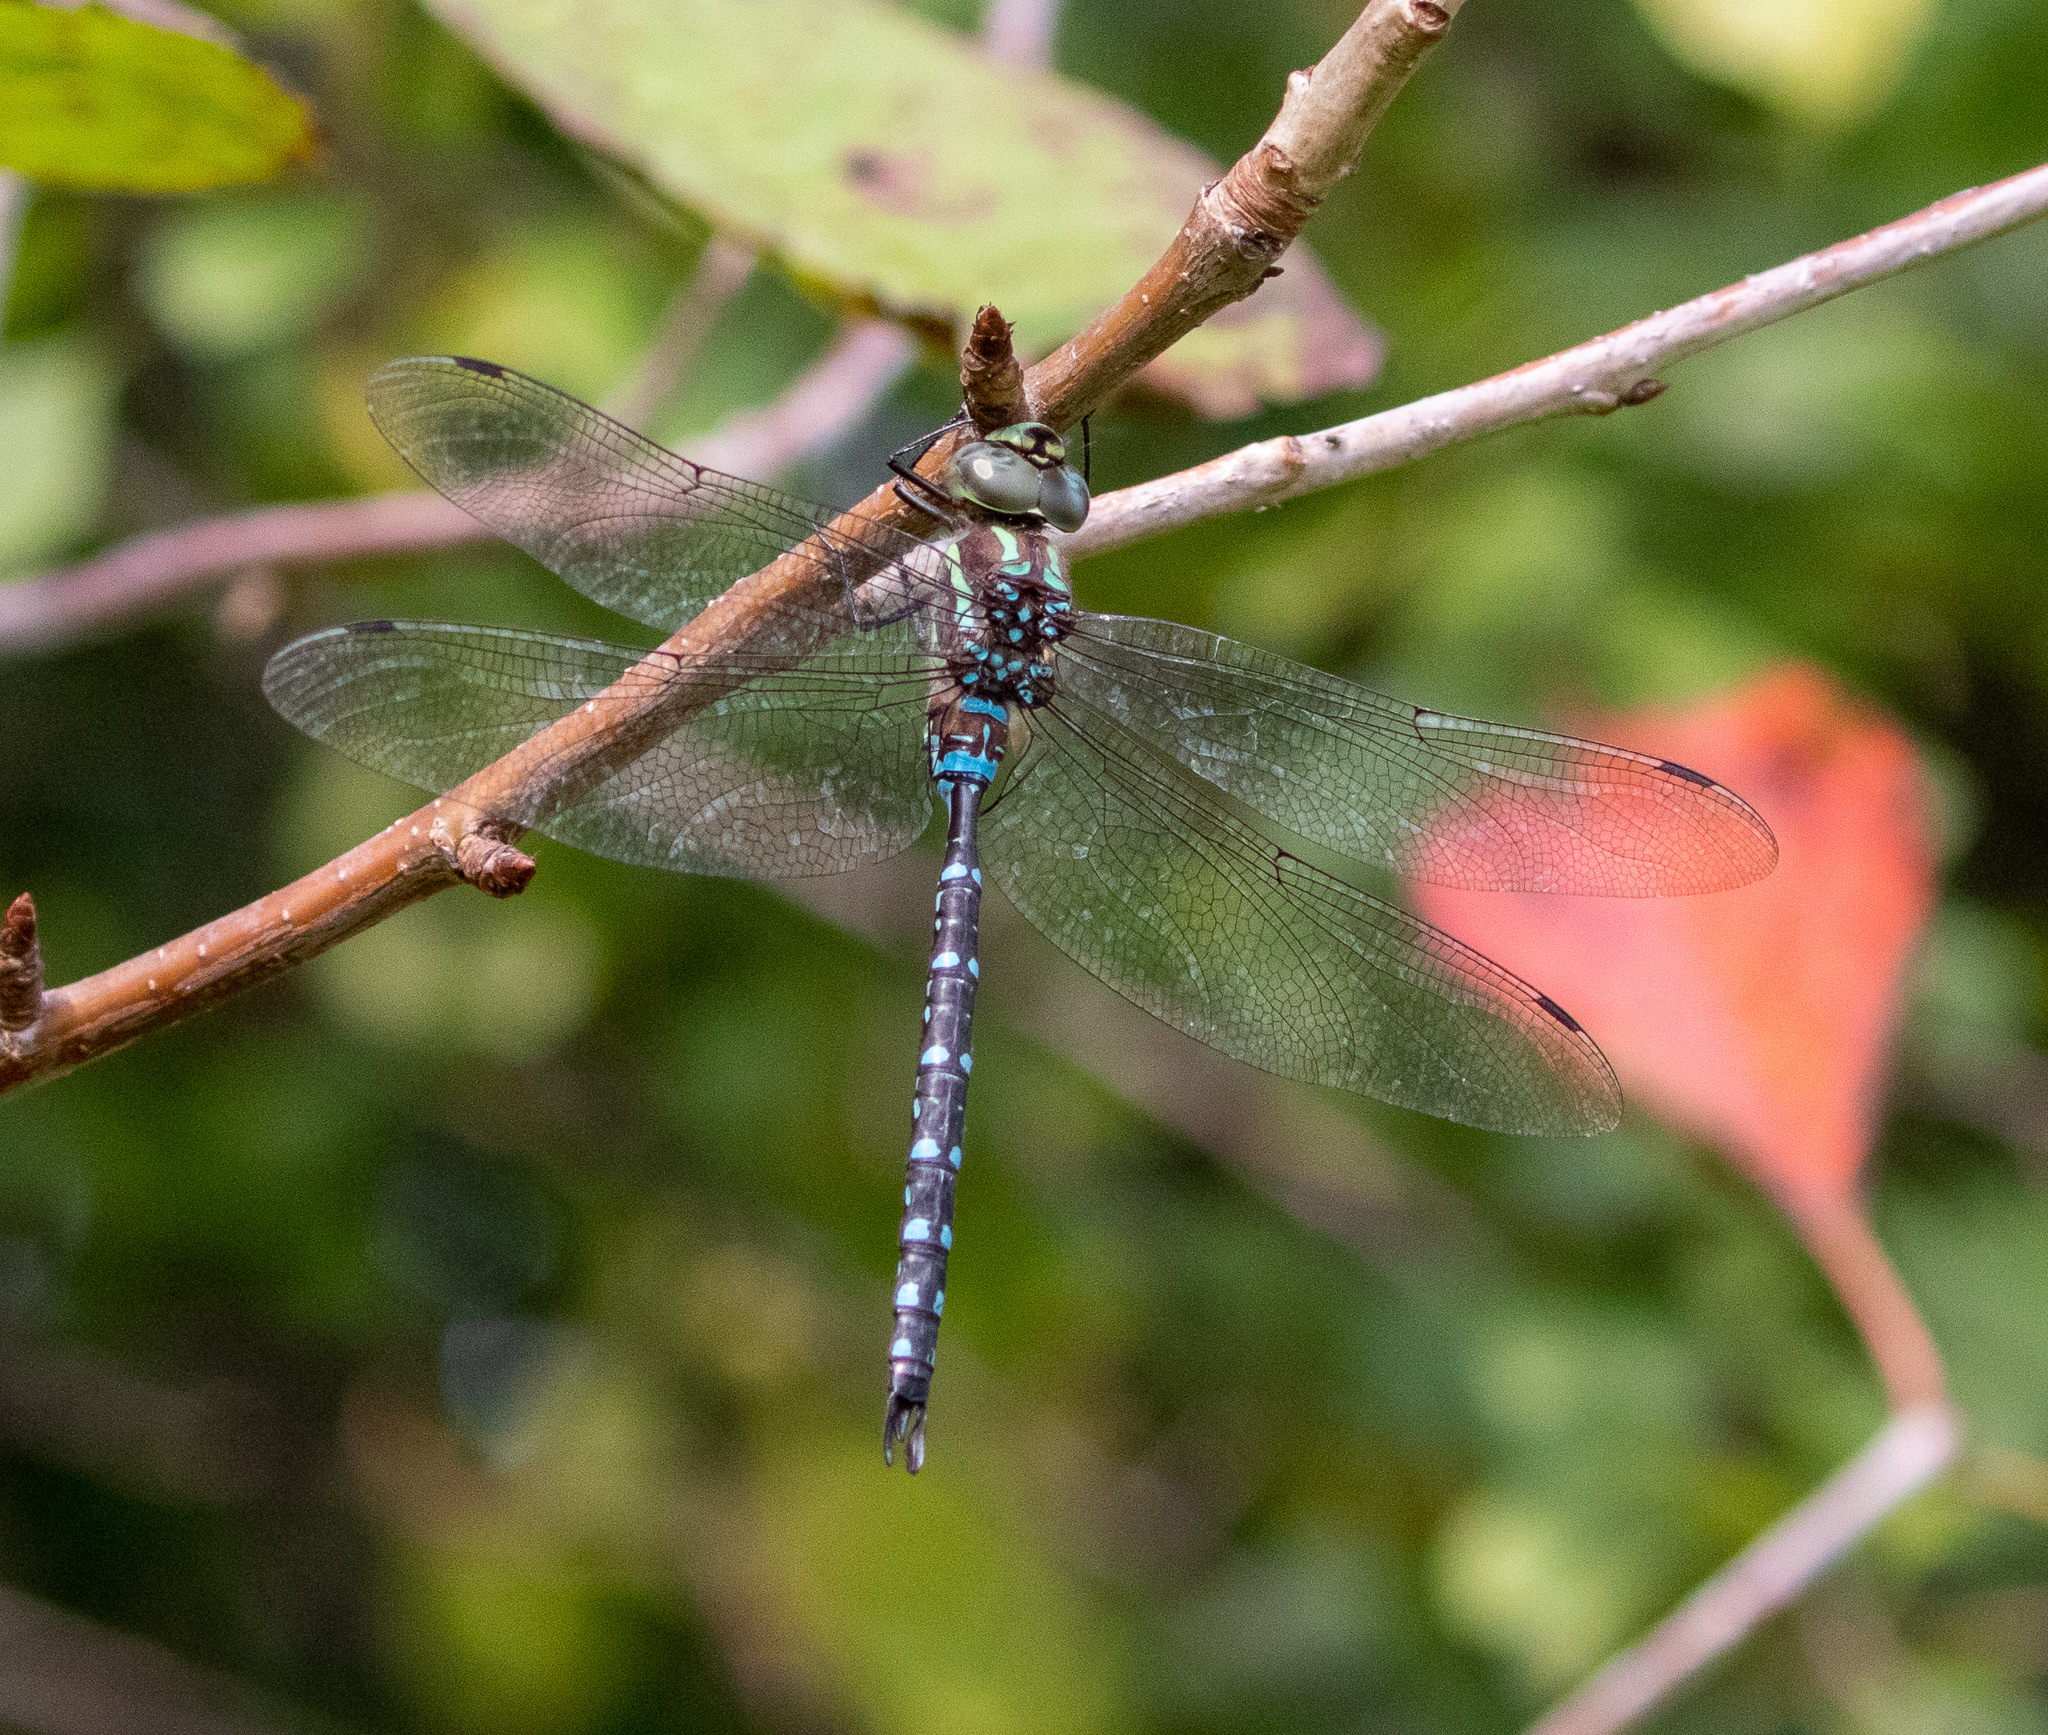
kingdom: Animalia
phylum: Arthropoda
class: Insecta
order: Odonata
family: Aeshnidae
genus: Aeshna
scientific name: Aeshna tuberculifera
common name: Aeschne à tubercules
